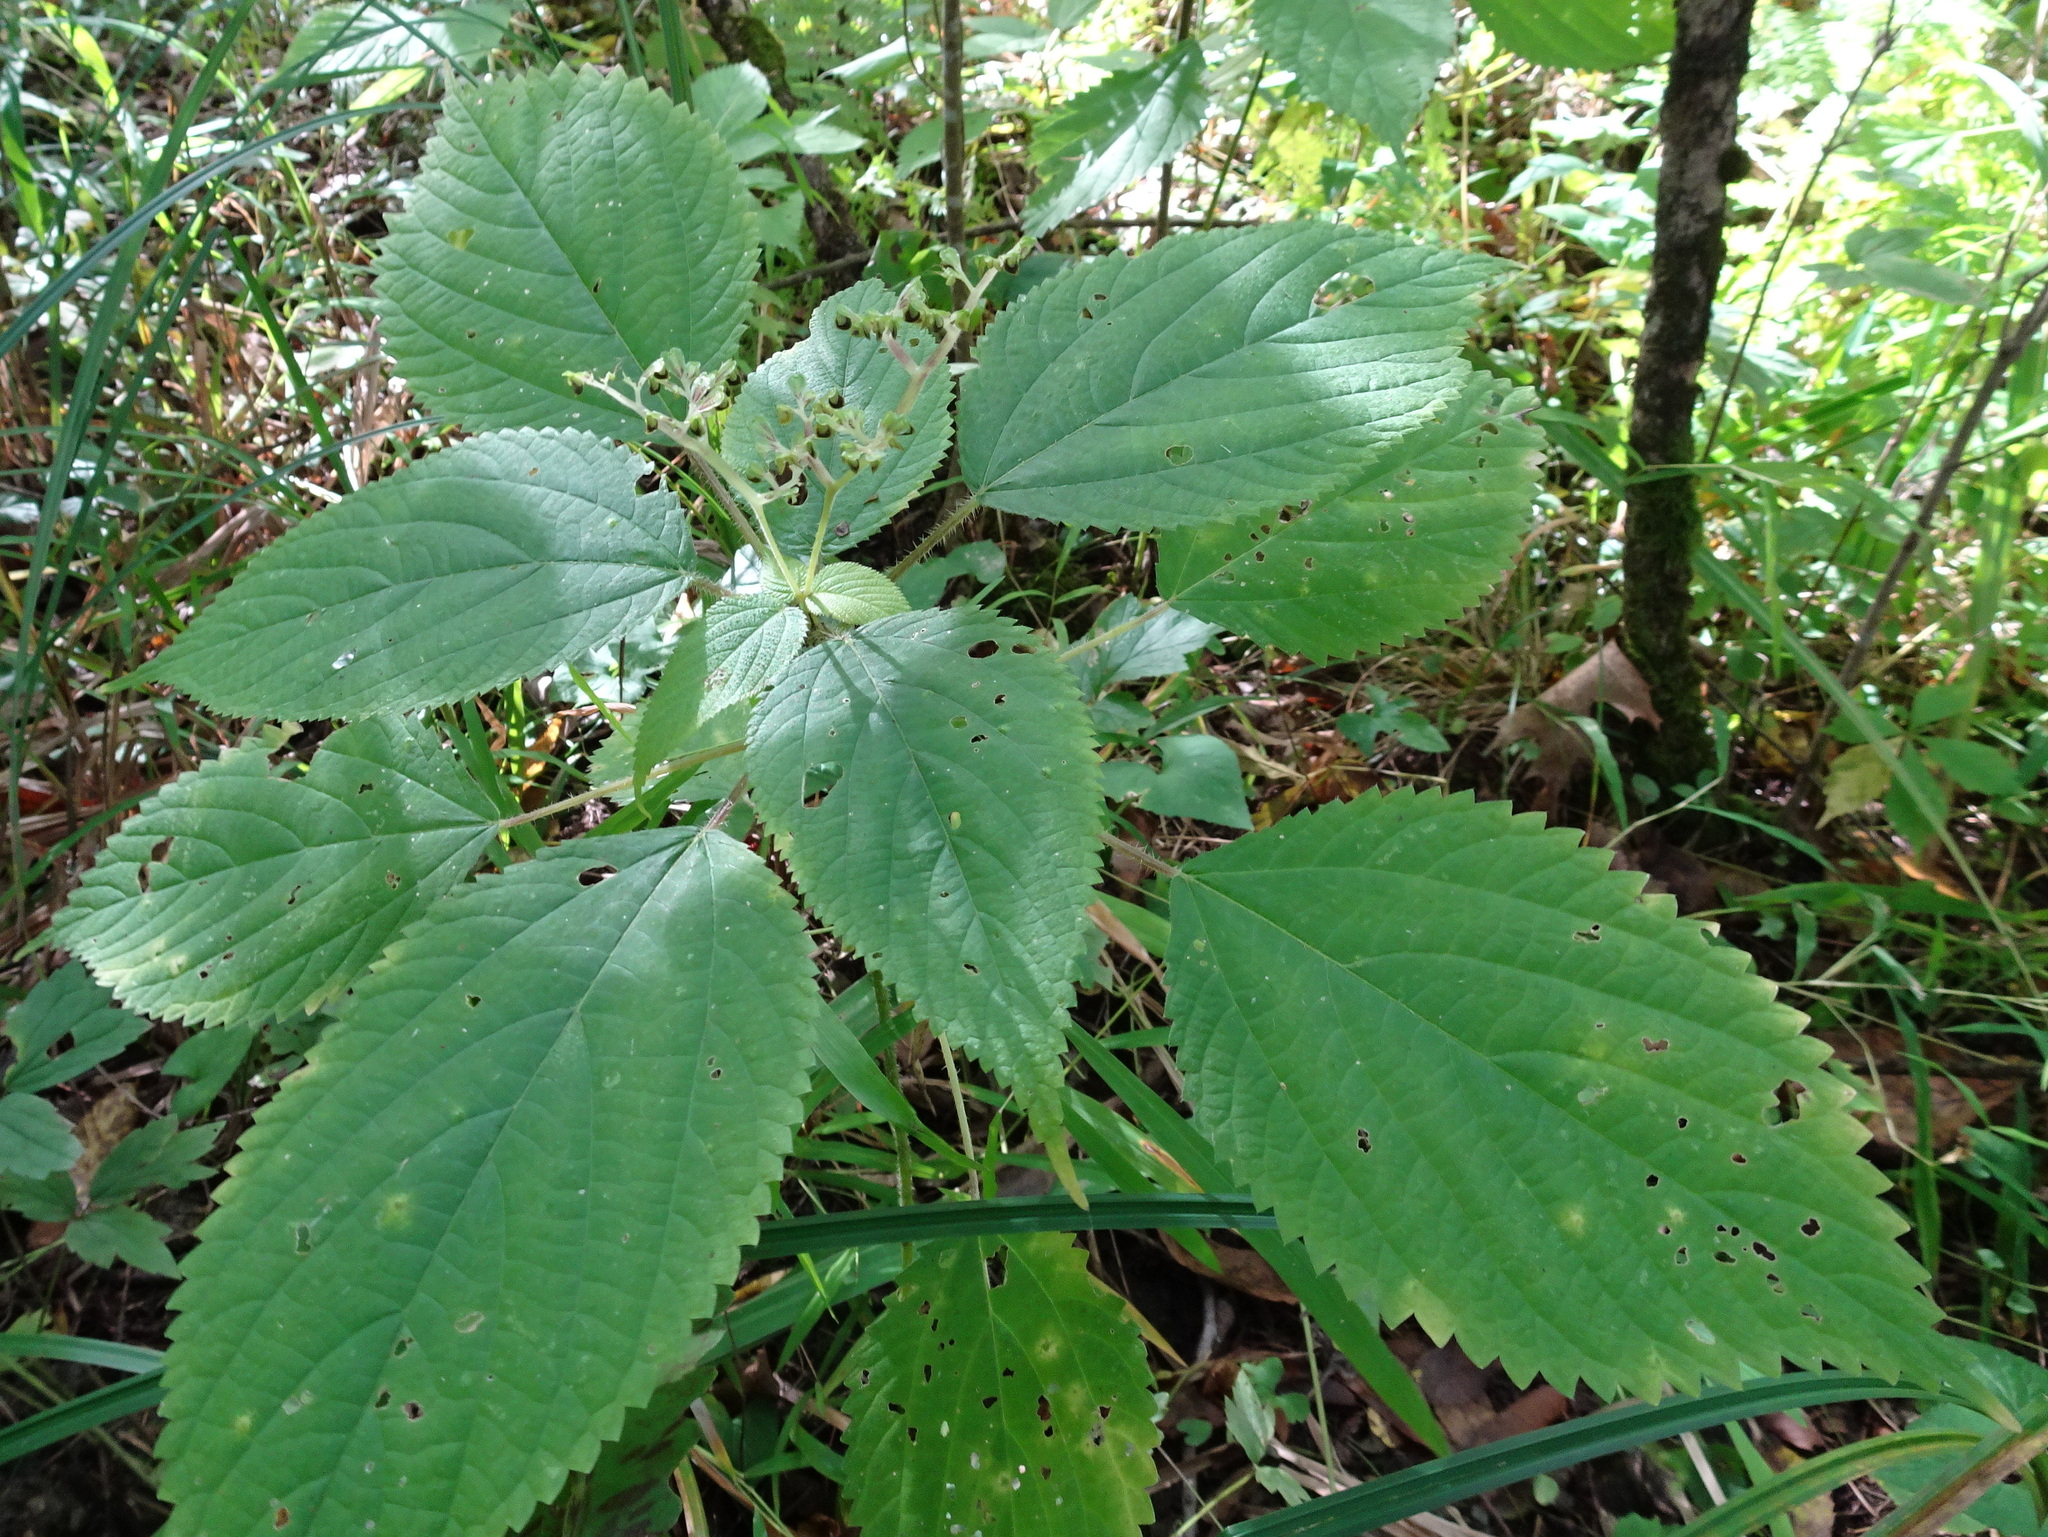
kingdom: Plantae
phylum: Tracheophyta
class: Magnoliopsida
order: Rosales
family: Urticaceae
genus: Laportea
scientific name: Laportea canadensis
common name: Canada nettle
